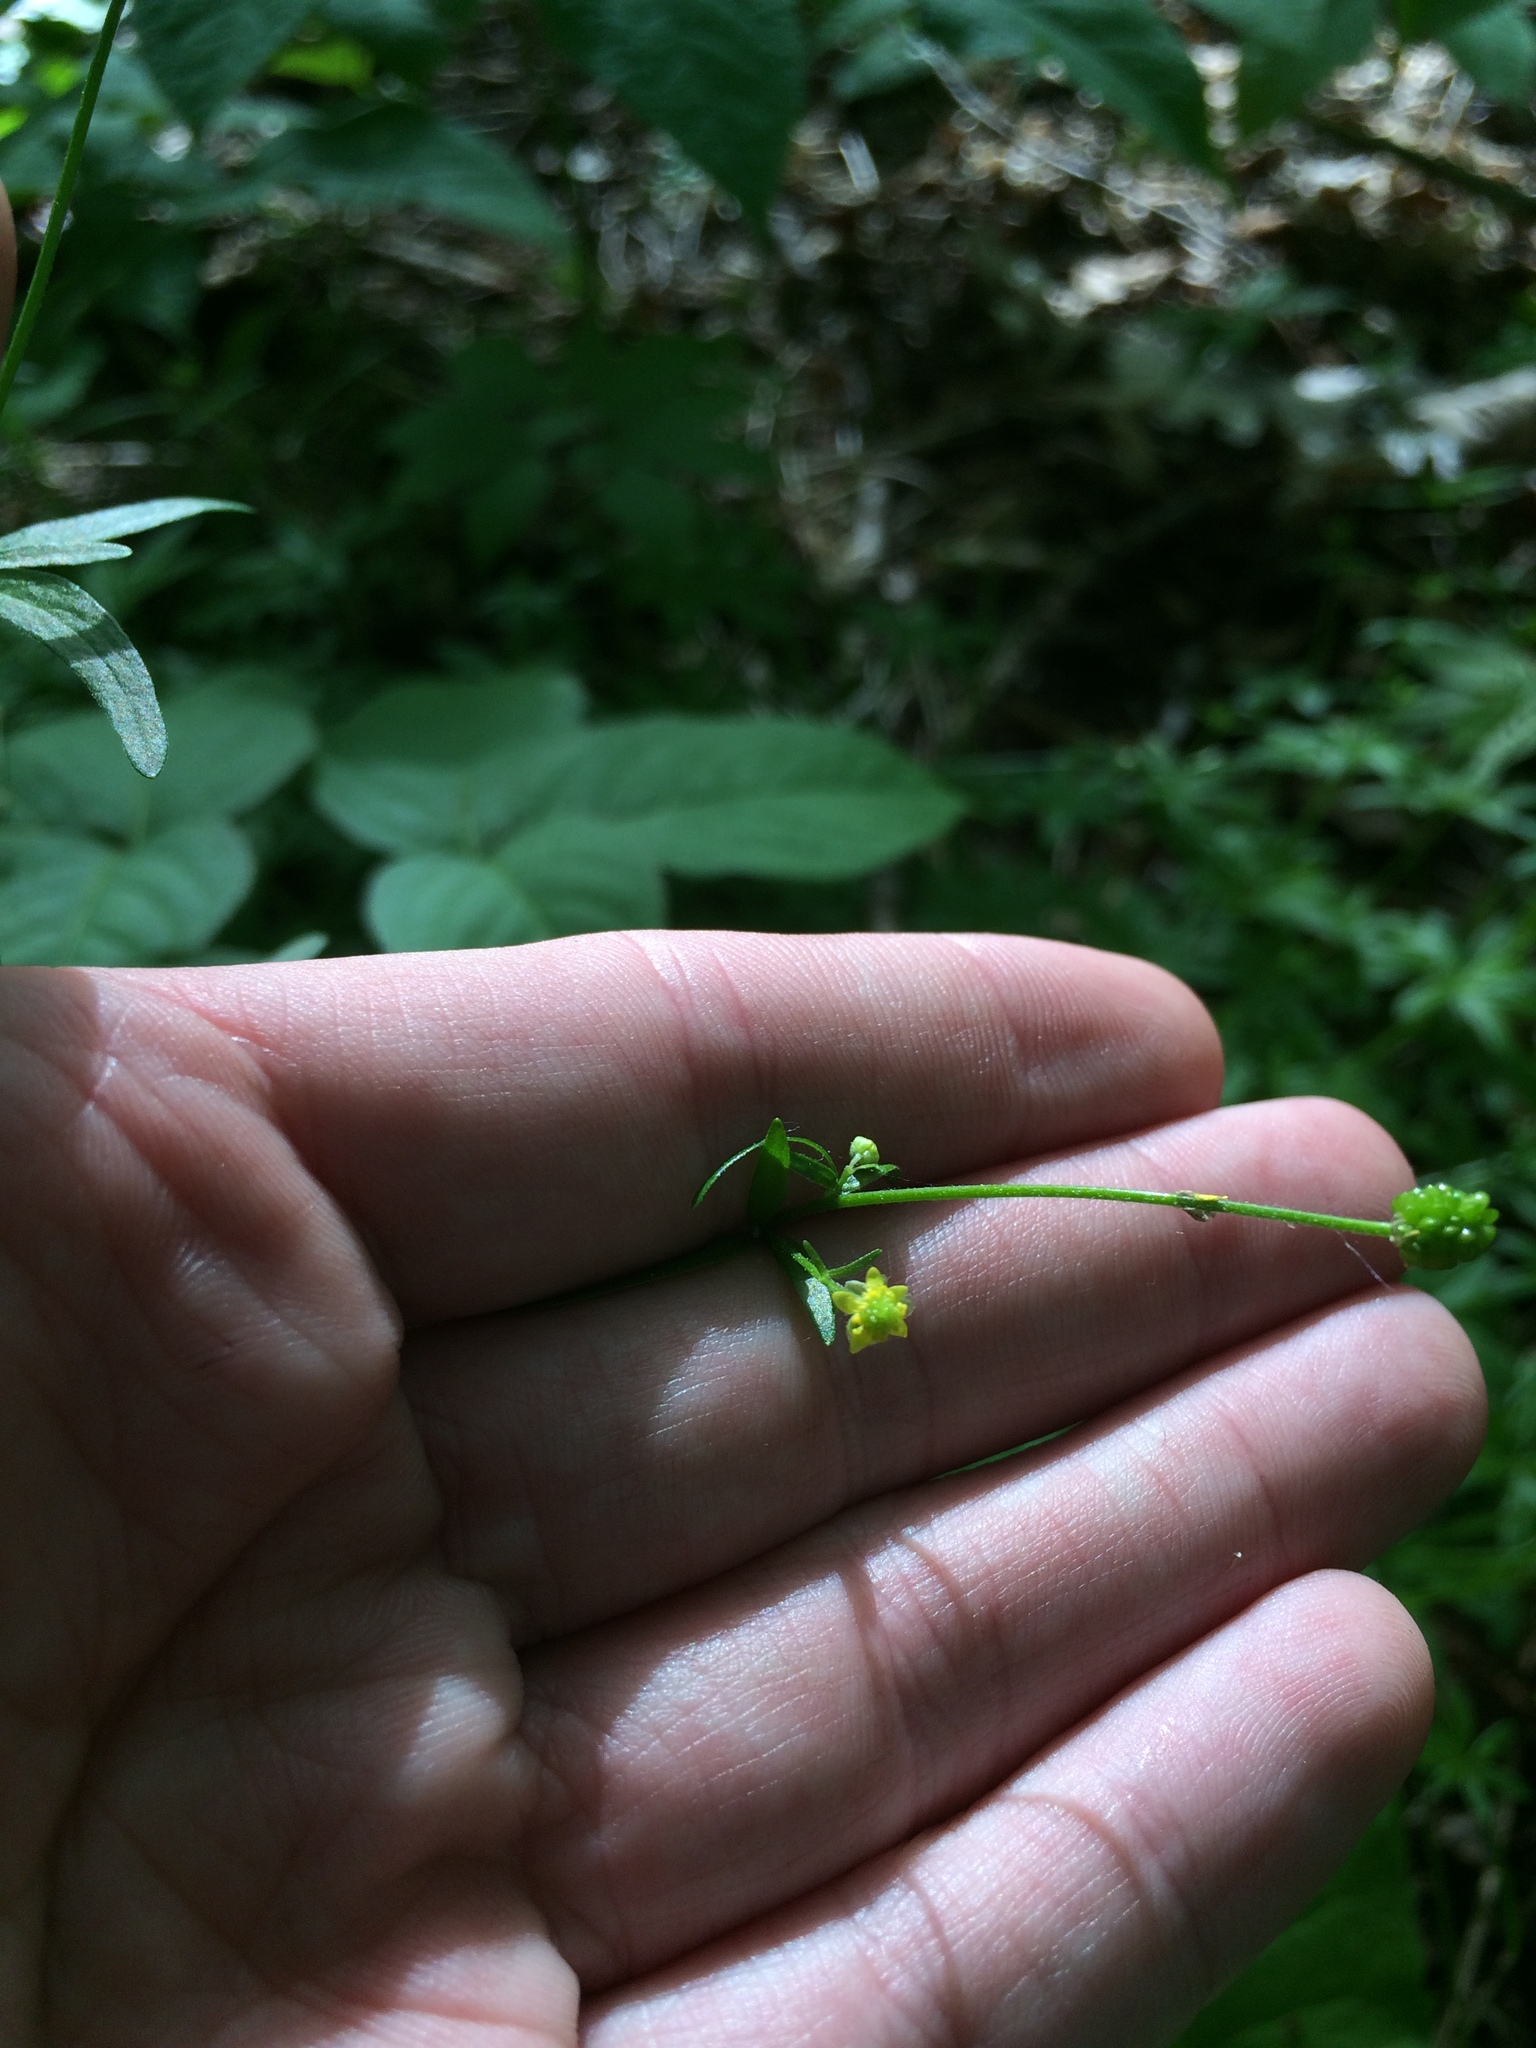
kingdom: Plantae
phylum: Tracheophyta
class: Magnoliopsida
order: Ranunculales
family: Ranunculaceae
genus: Ranunculus
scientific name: Ranunculus abortivus
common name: Early wood buttercup
